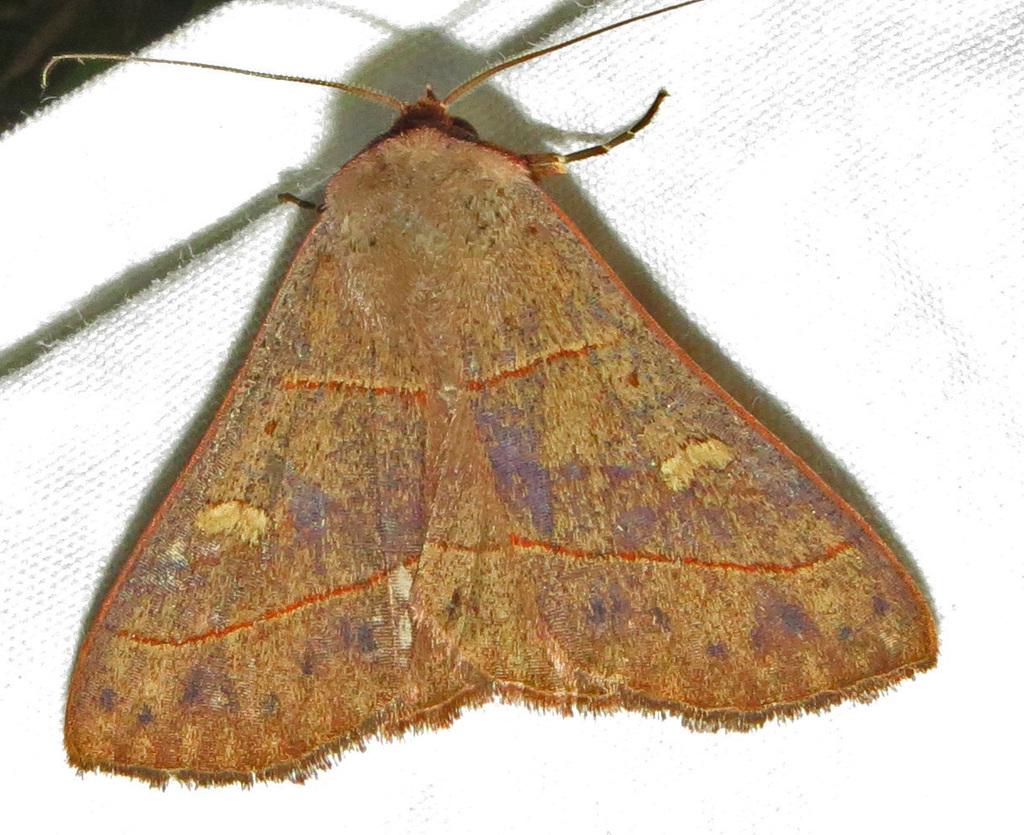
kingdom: Animalia
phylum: Arthropoda
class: Insecta
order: Lepidoptera
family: Erebidae
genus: Panopoda
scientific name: Panopoda rufimargo
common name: Red-lined panopoda moth
